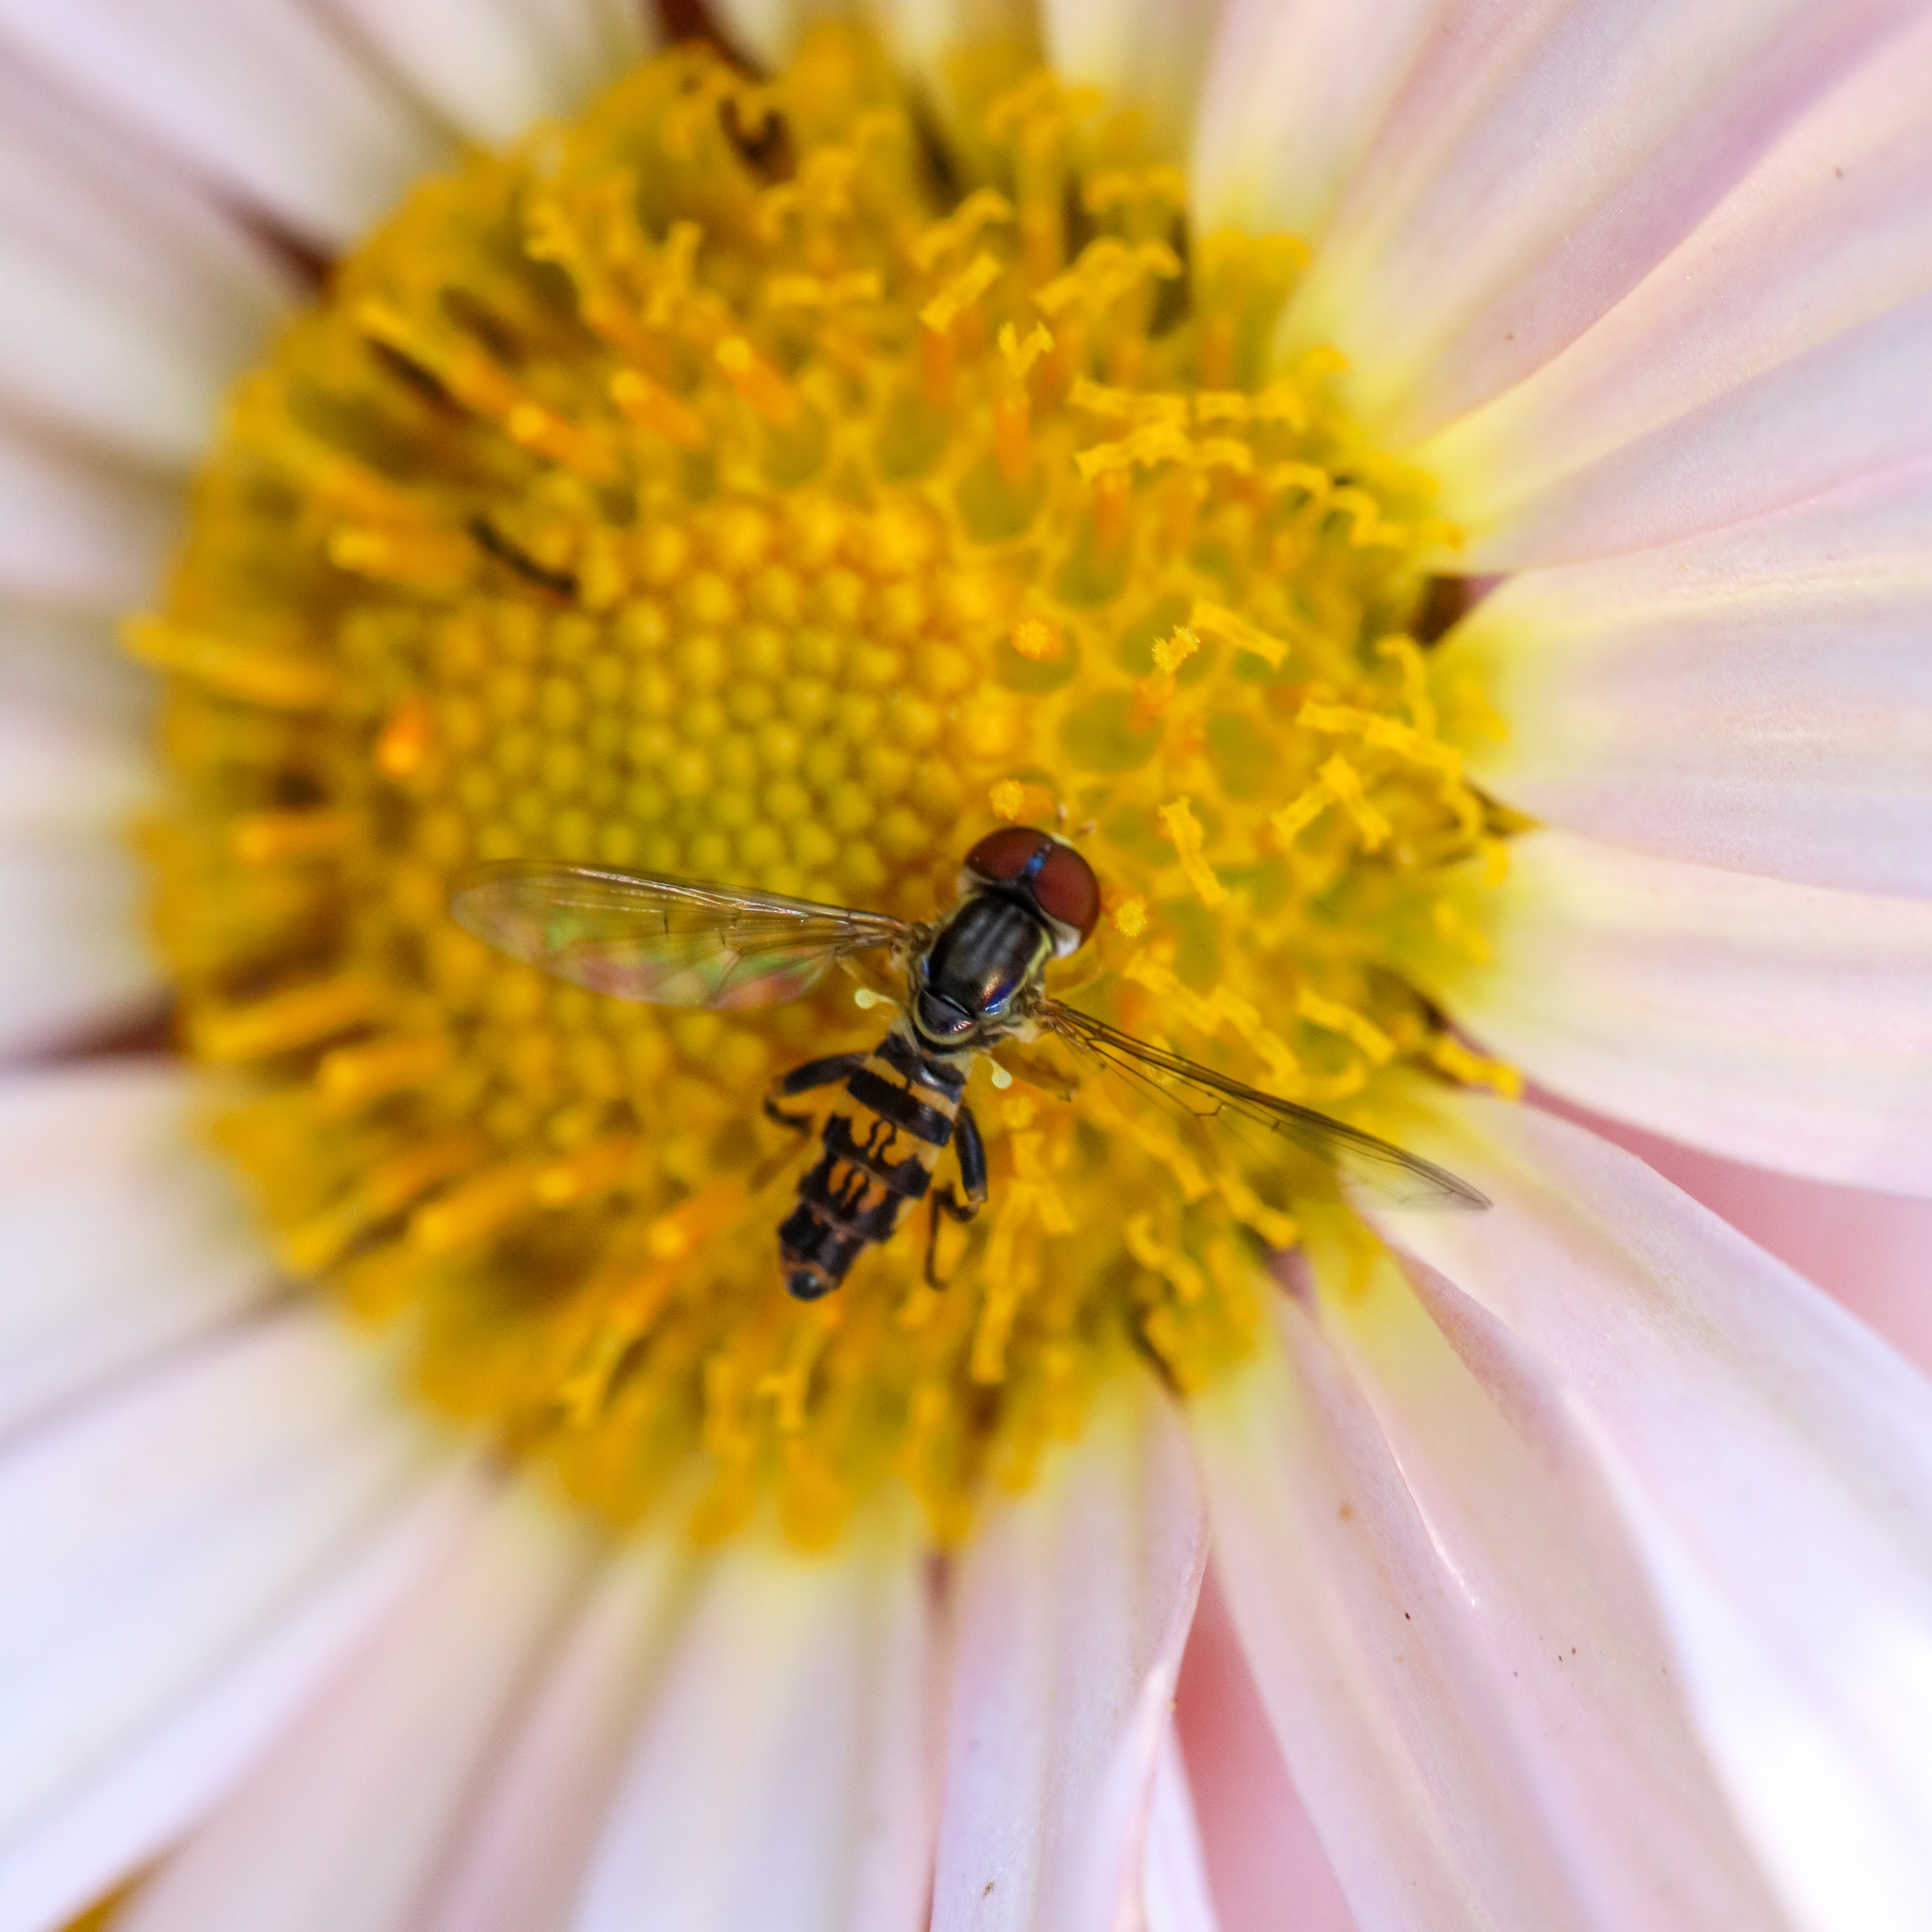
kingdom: Animalia
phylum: Arthropoda
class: Insecta
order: Diptera
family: Syrphidae
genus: Toxomerus
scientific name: Toxomerus geminatus
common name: Eastern calligrapher
